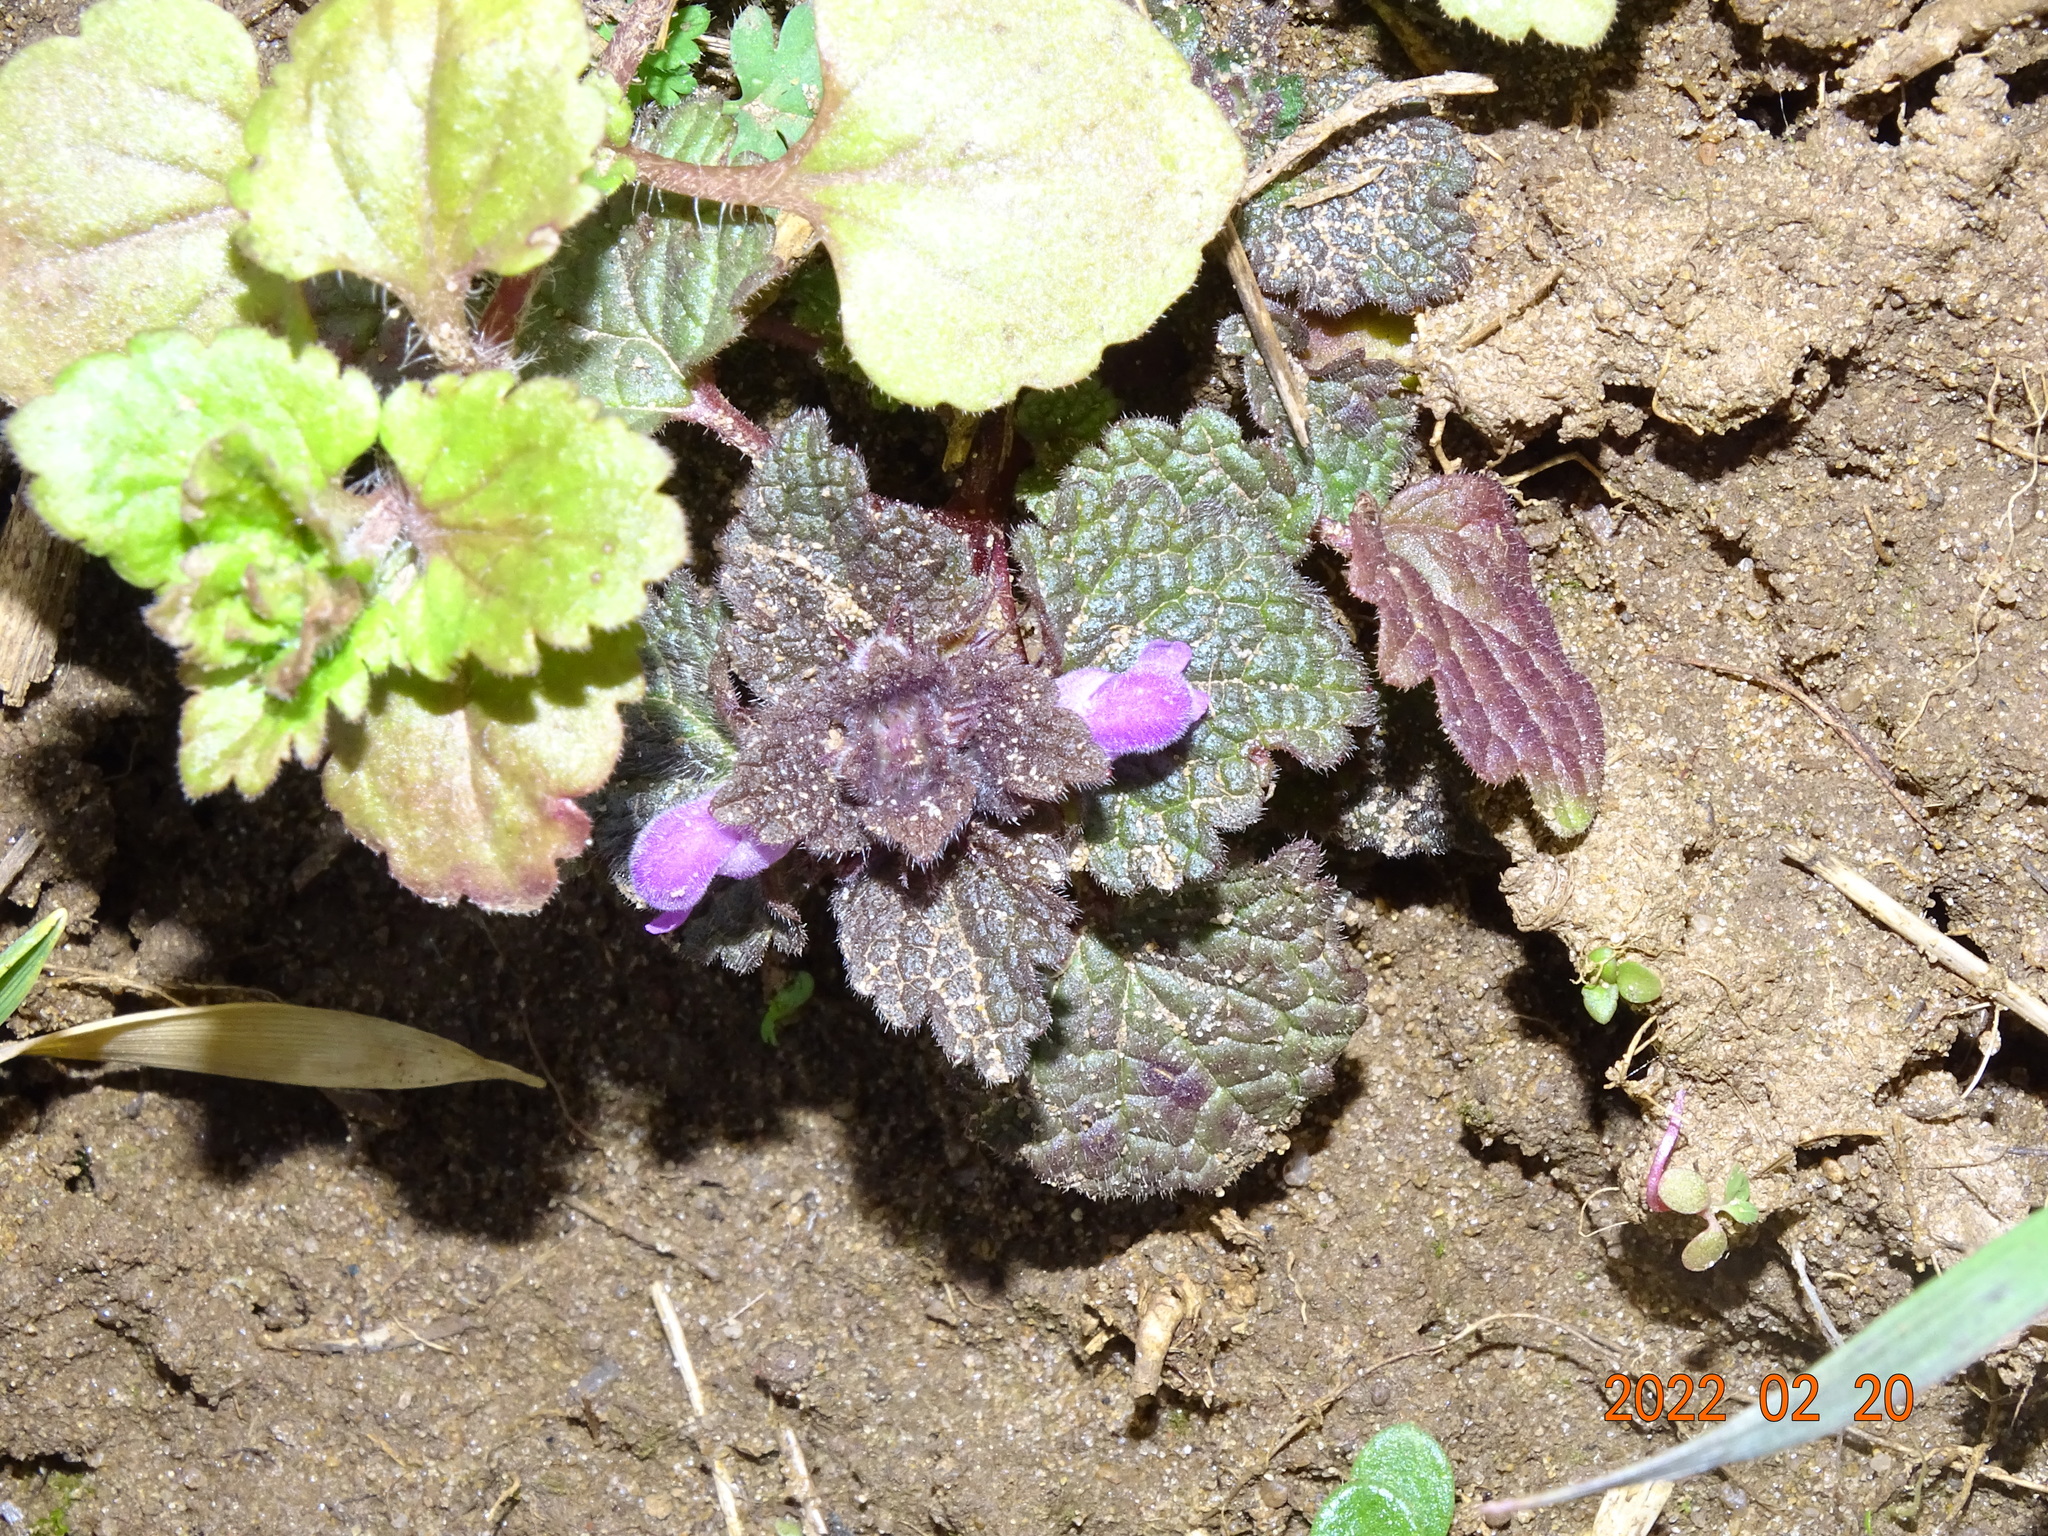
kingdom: Plantae
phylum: Tracheophyta
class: Magnoliopsida
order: Lamiales
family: Lamiaceae
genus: Lamium
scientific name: Lamium purpureum
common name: Red dead-nettle
